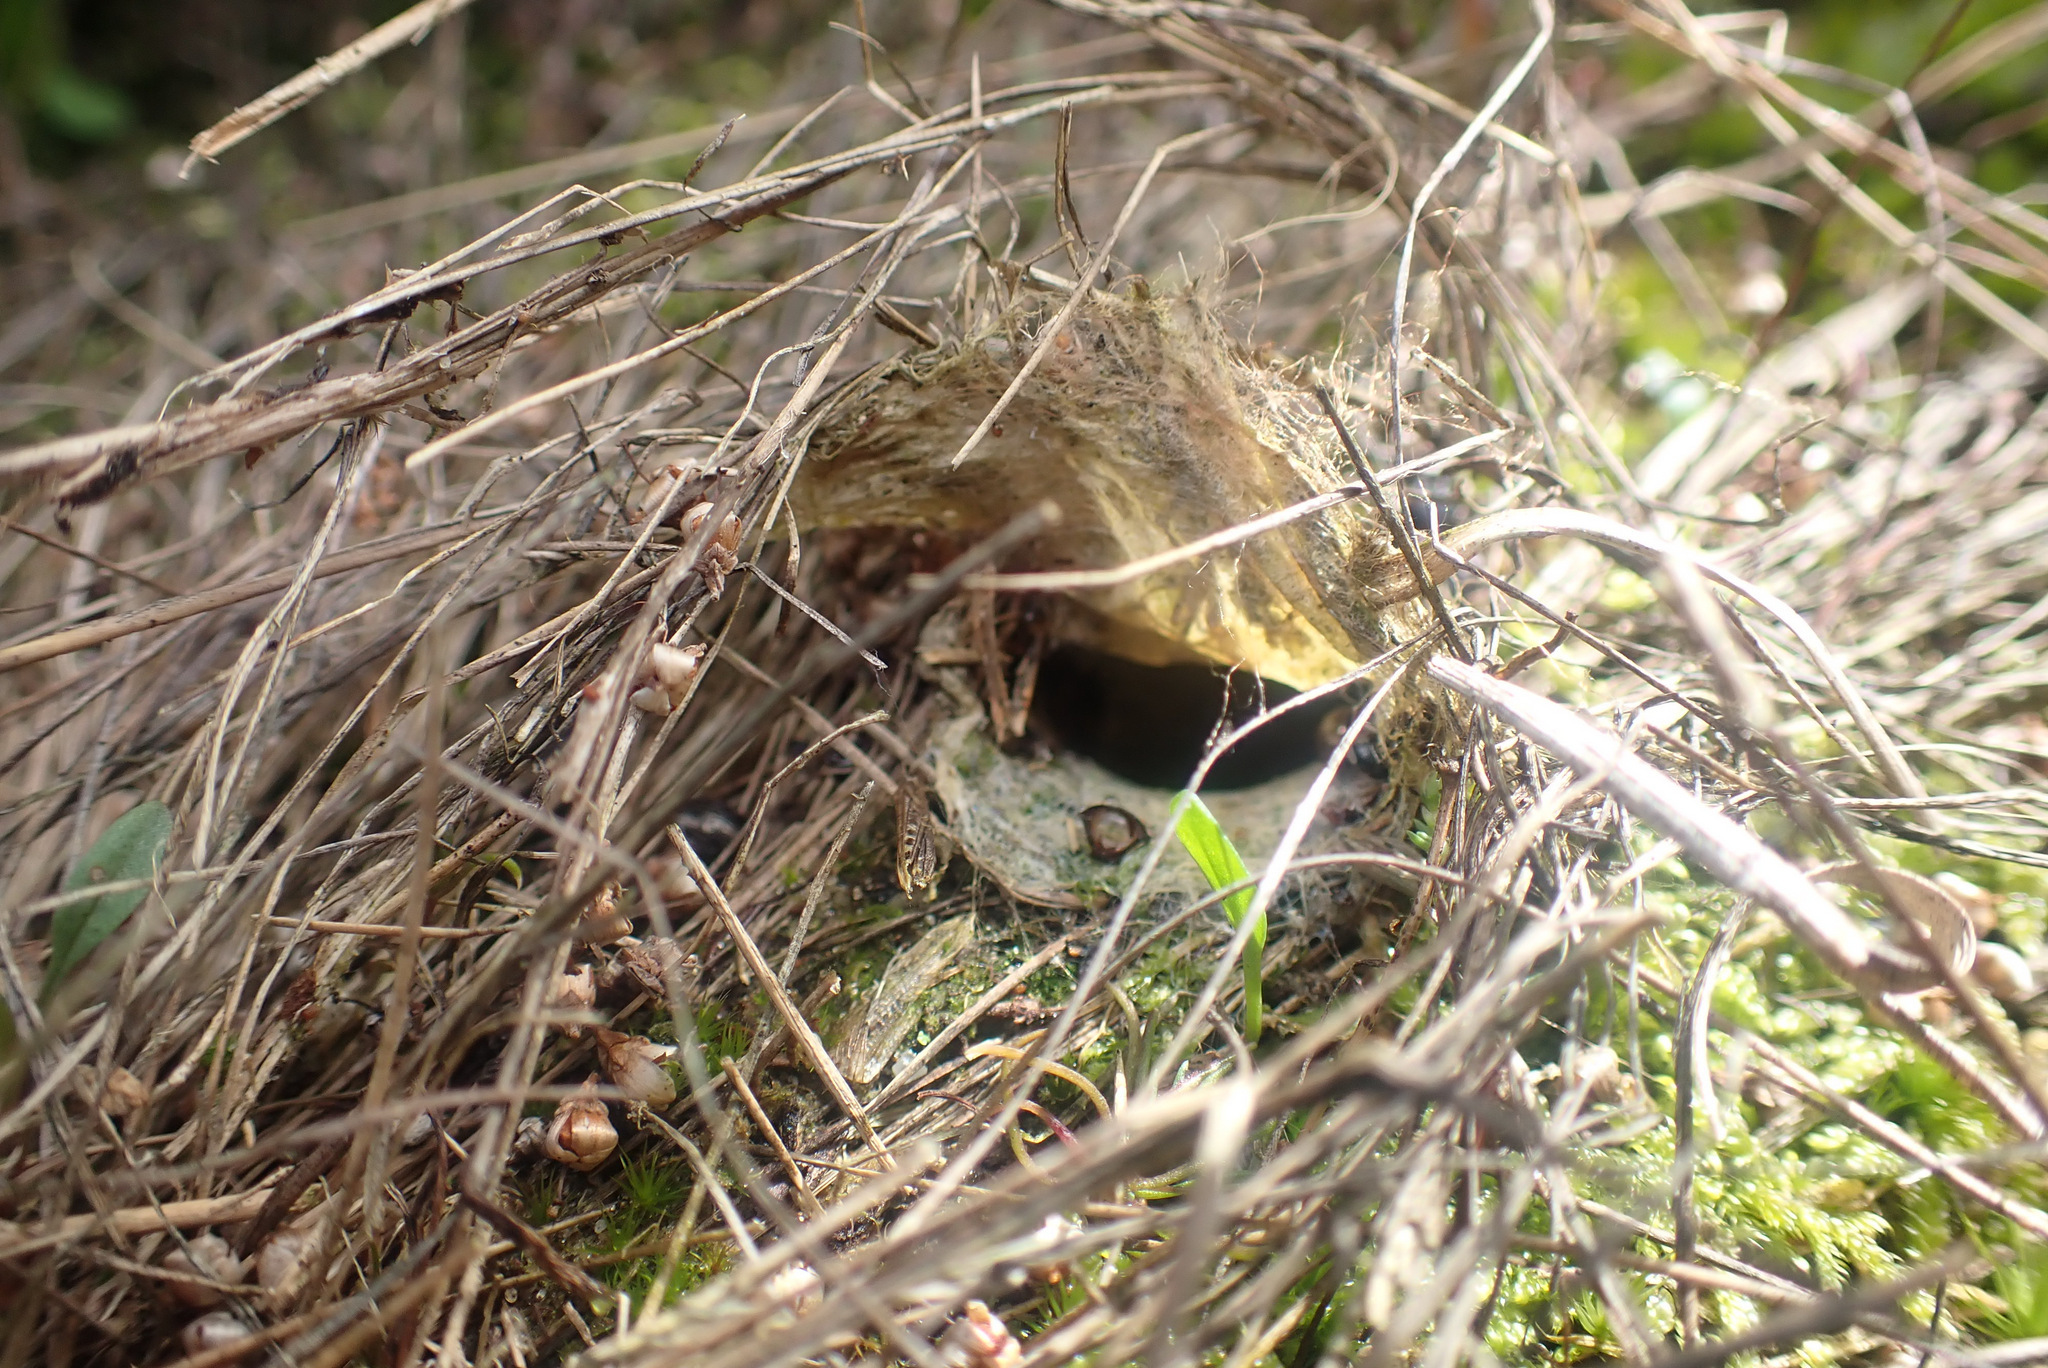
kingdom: Animalia
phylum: Arthropoda
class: Arachnida
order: Araneae
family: Eresidae
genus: Eresus
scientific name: Eresus sandaliatus
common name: Ladybird spider
